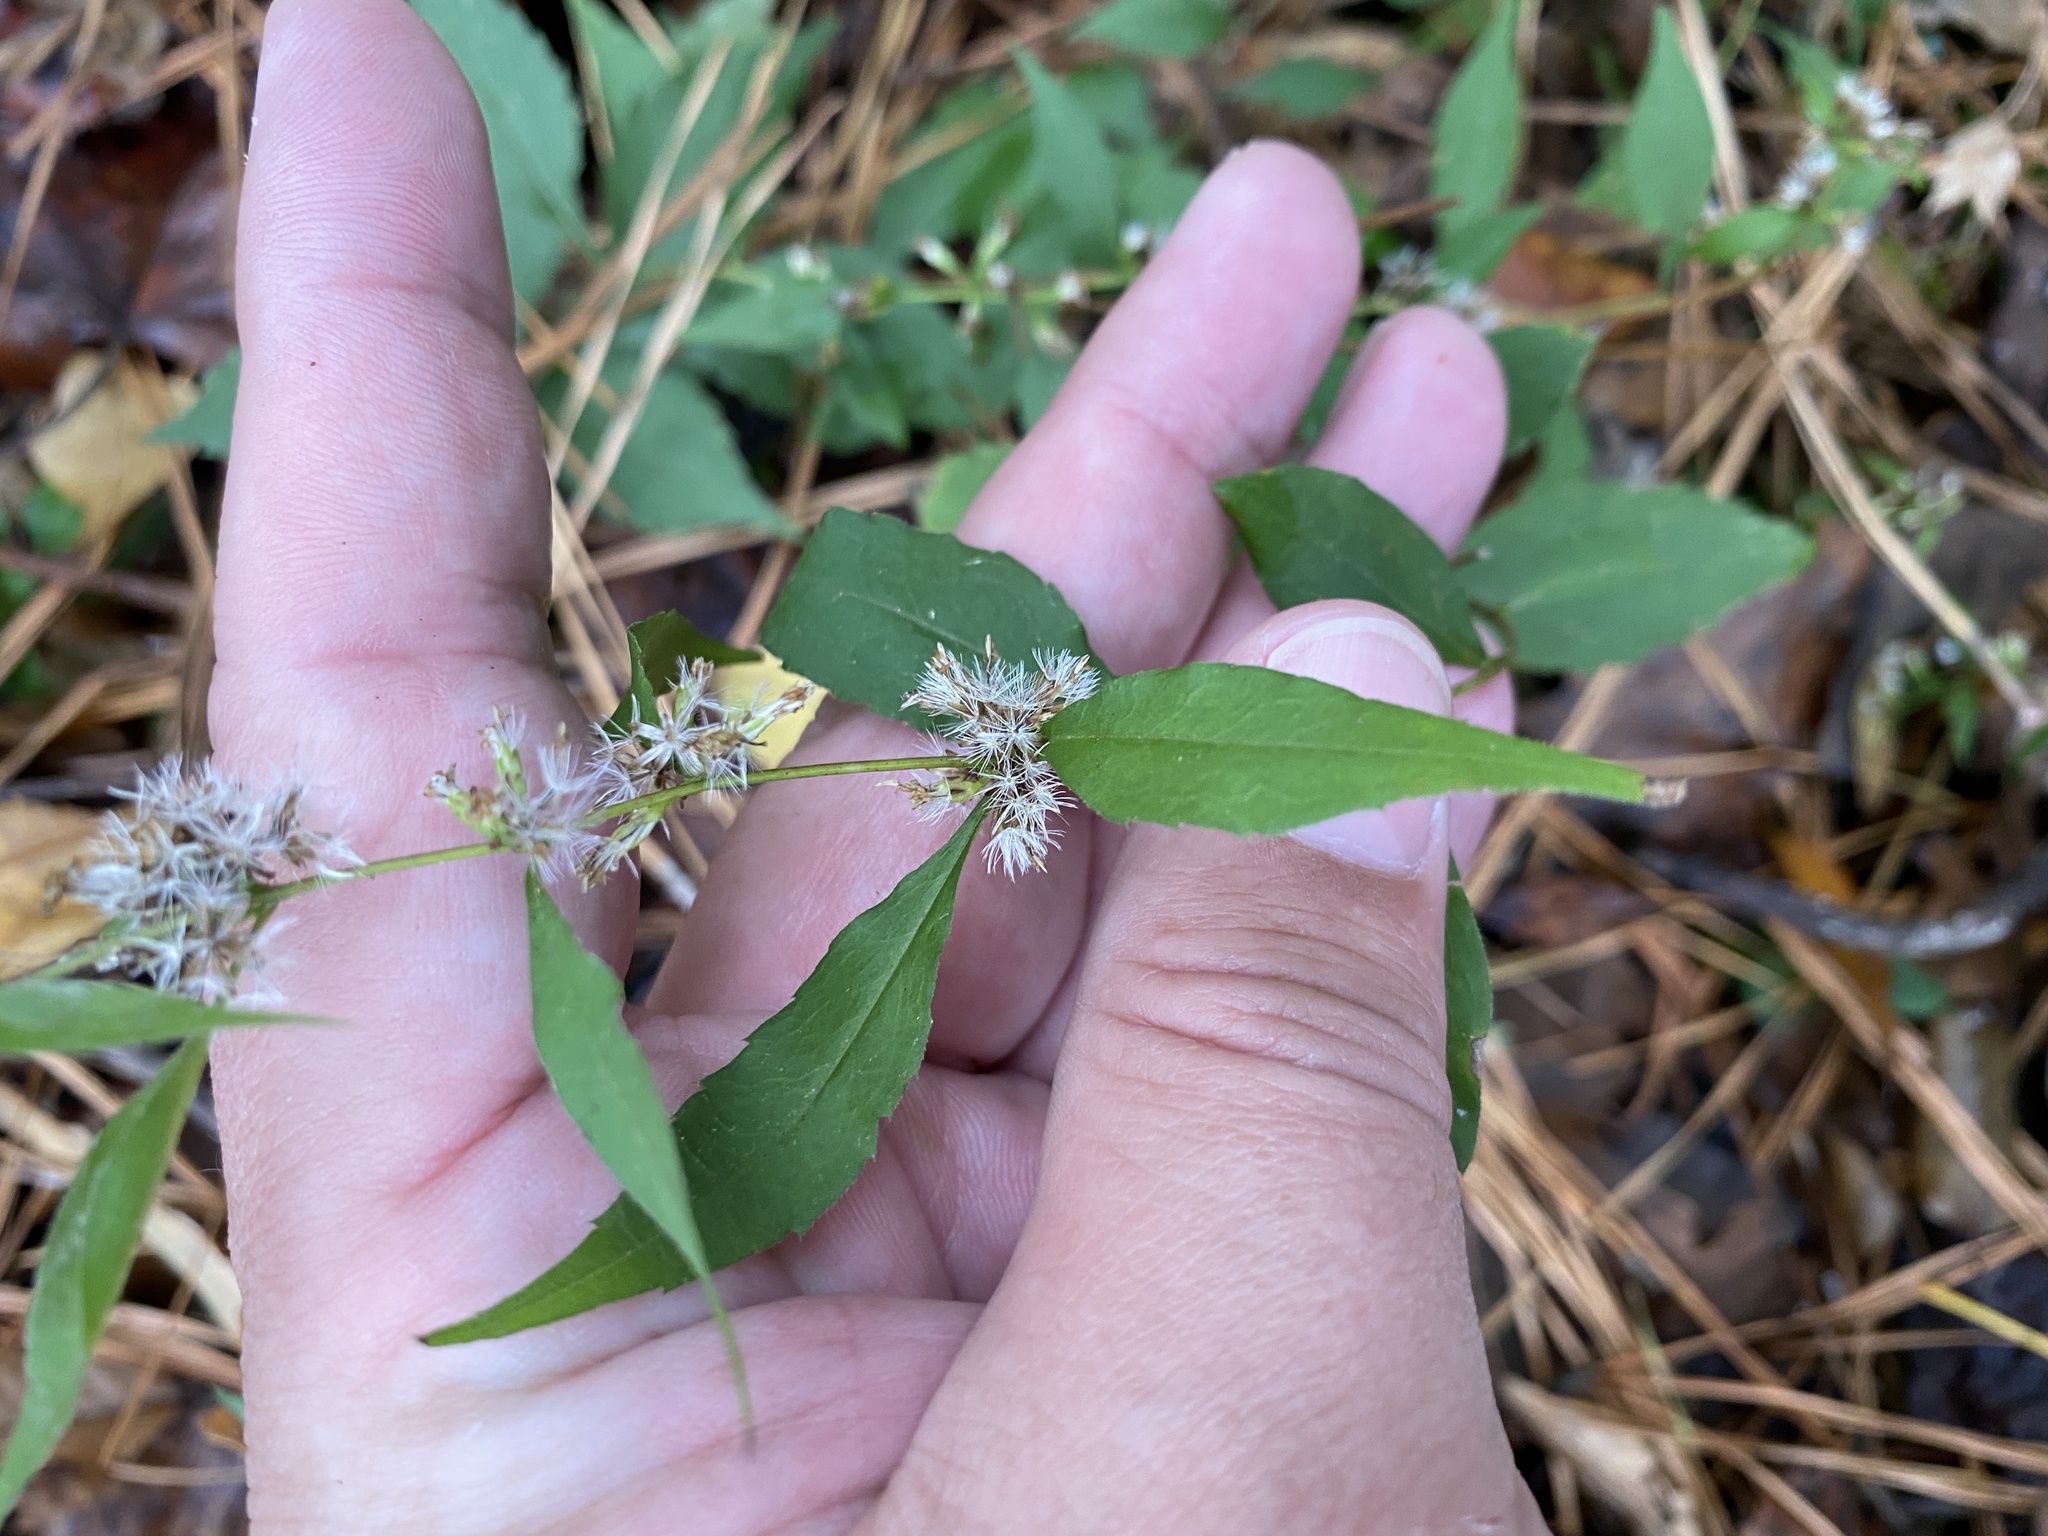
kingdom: Plantae
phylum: Tracheophyta
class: Magnoliopsida
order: Asterales
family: Asteraceae
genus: Solidago
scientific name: Solidago caesia
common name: Woodland goldenrod
